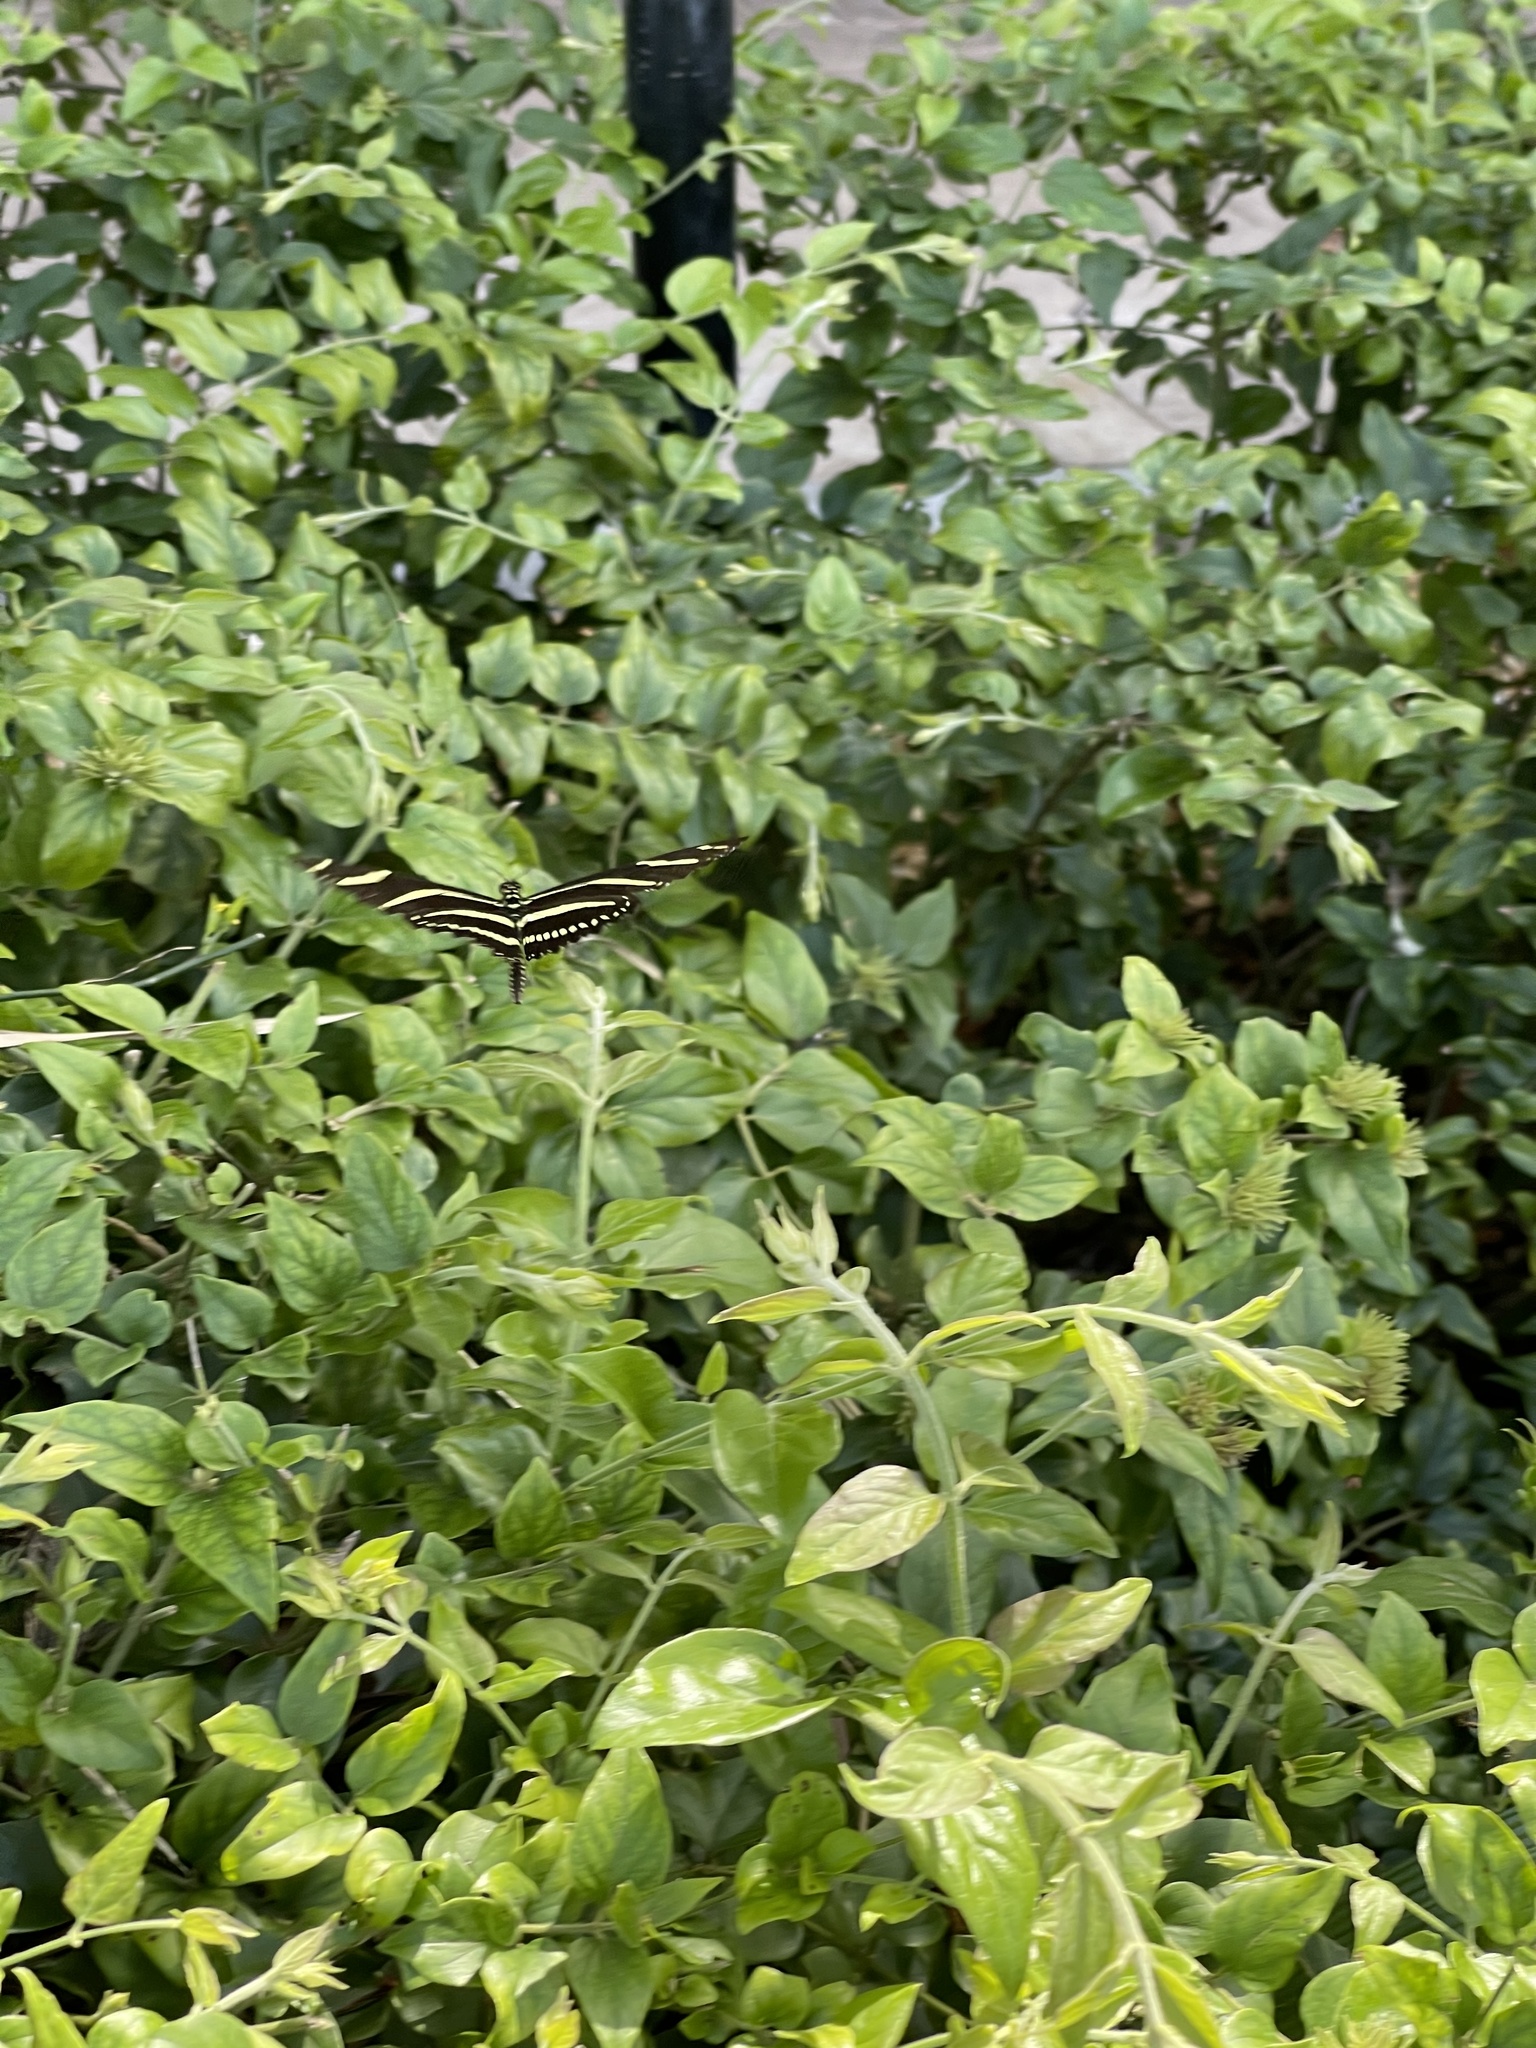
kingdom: Animalia
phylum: Arthropoda
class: Insecta
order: Lepidoptera
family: Nymphalidae
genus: Heliconius
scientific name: Heliconius charithonia
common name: Zebra long wing
